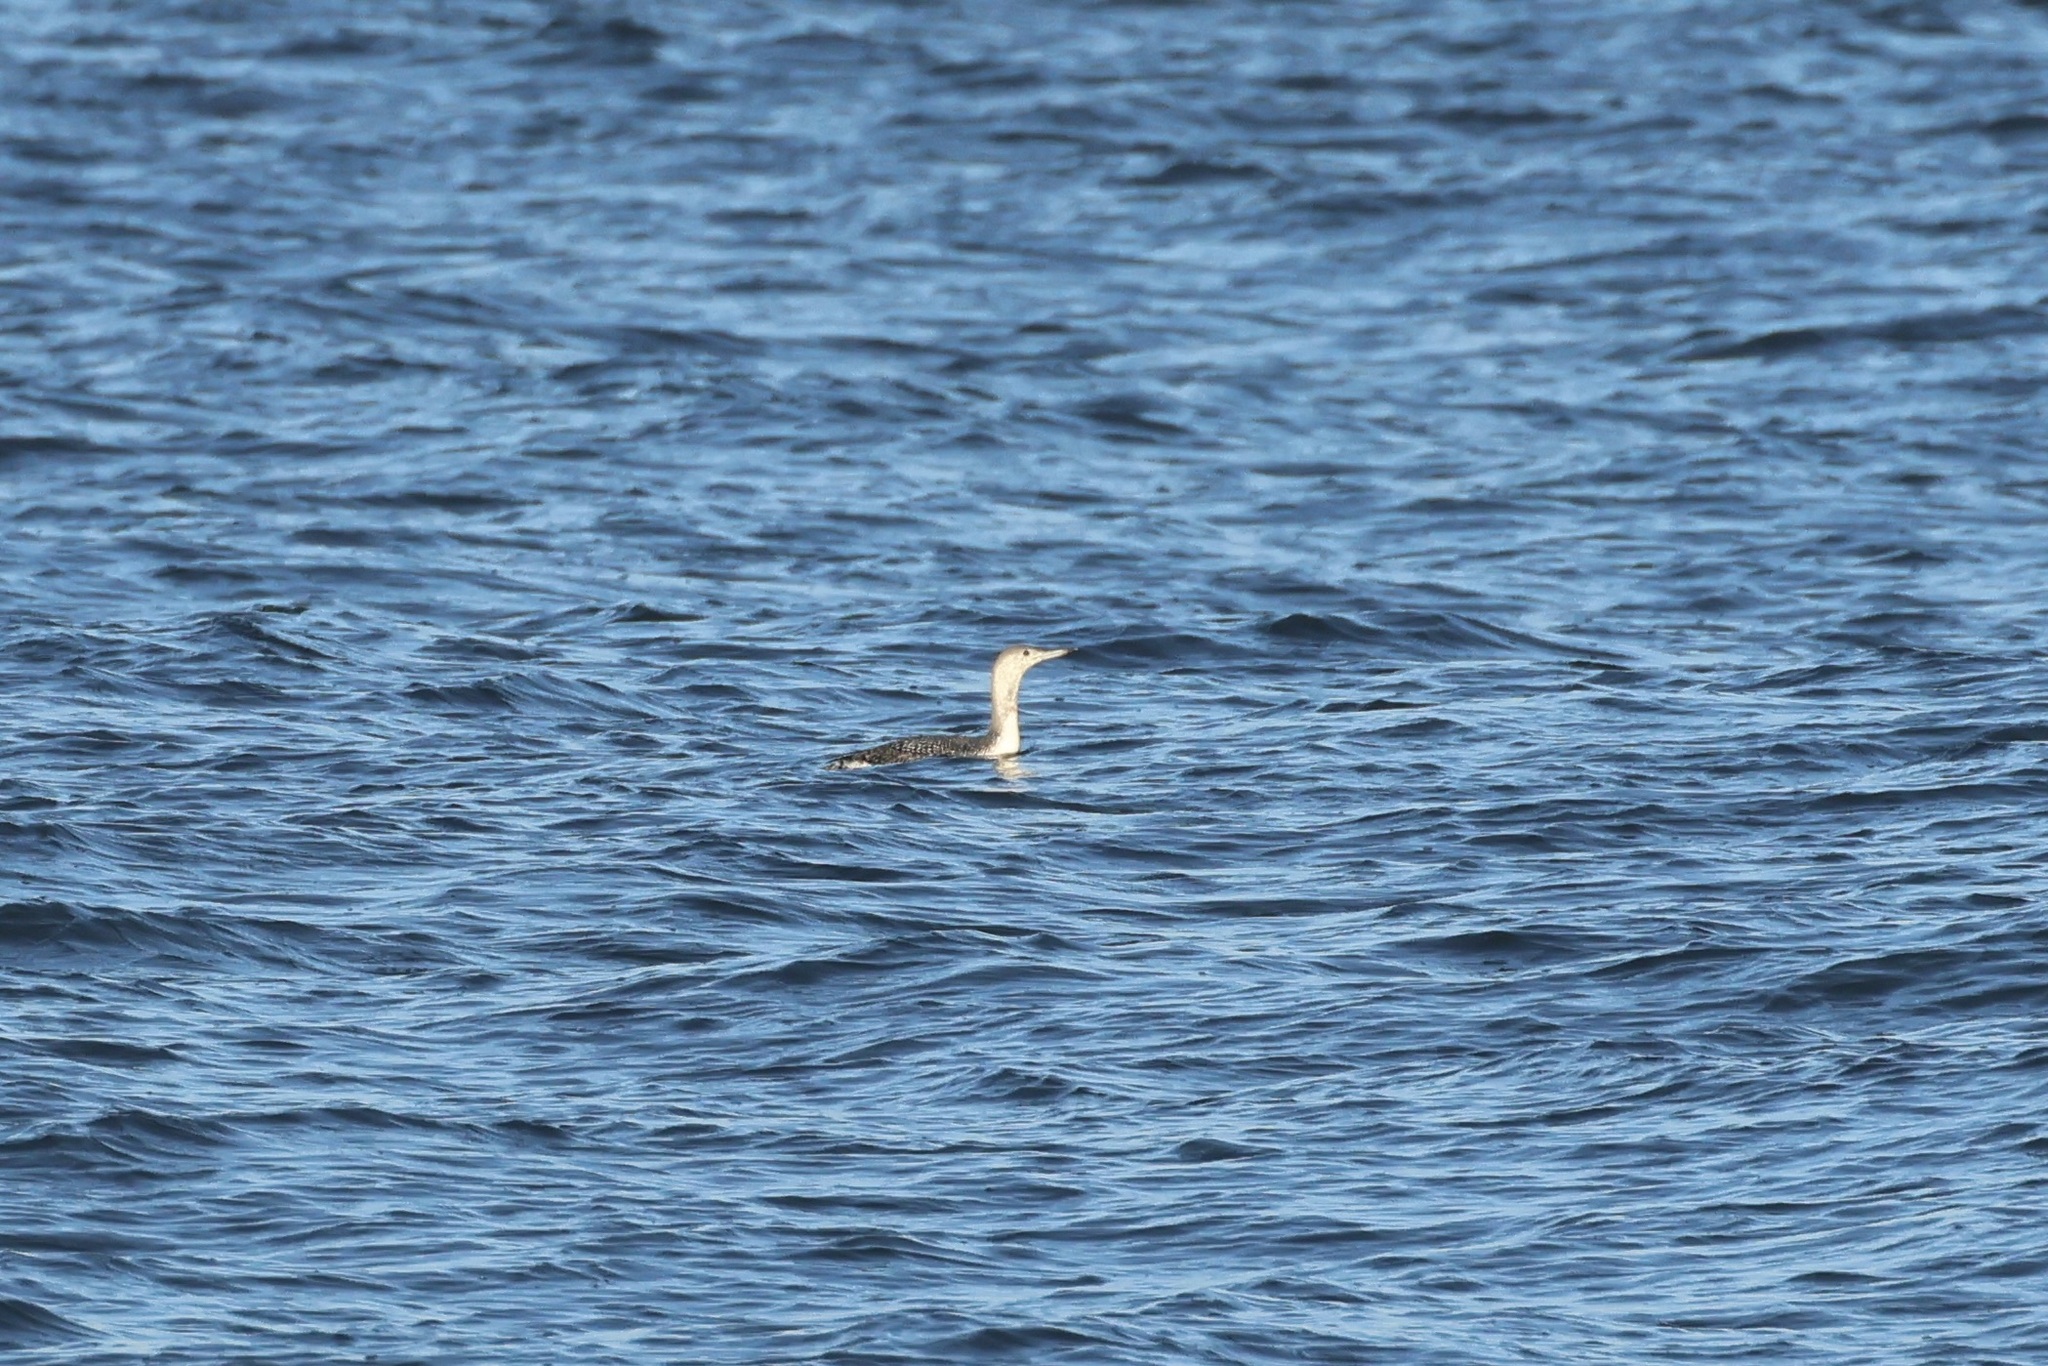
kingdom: Animalia
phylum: Chordata
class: Aves
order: Gaviiformes
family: Gaviidae
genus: Gavia
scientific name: Gavia stellata
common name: Red-throated loon
